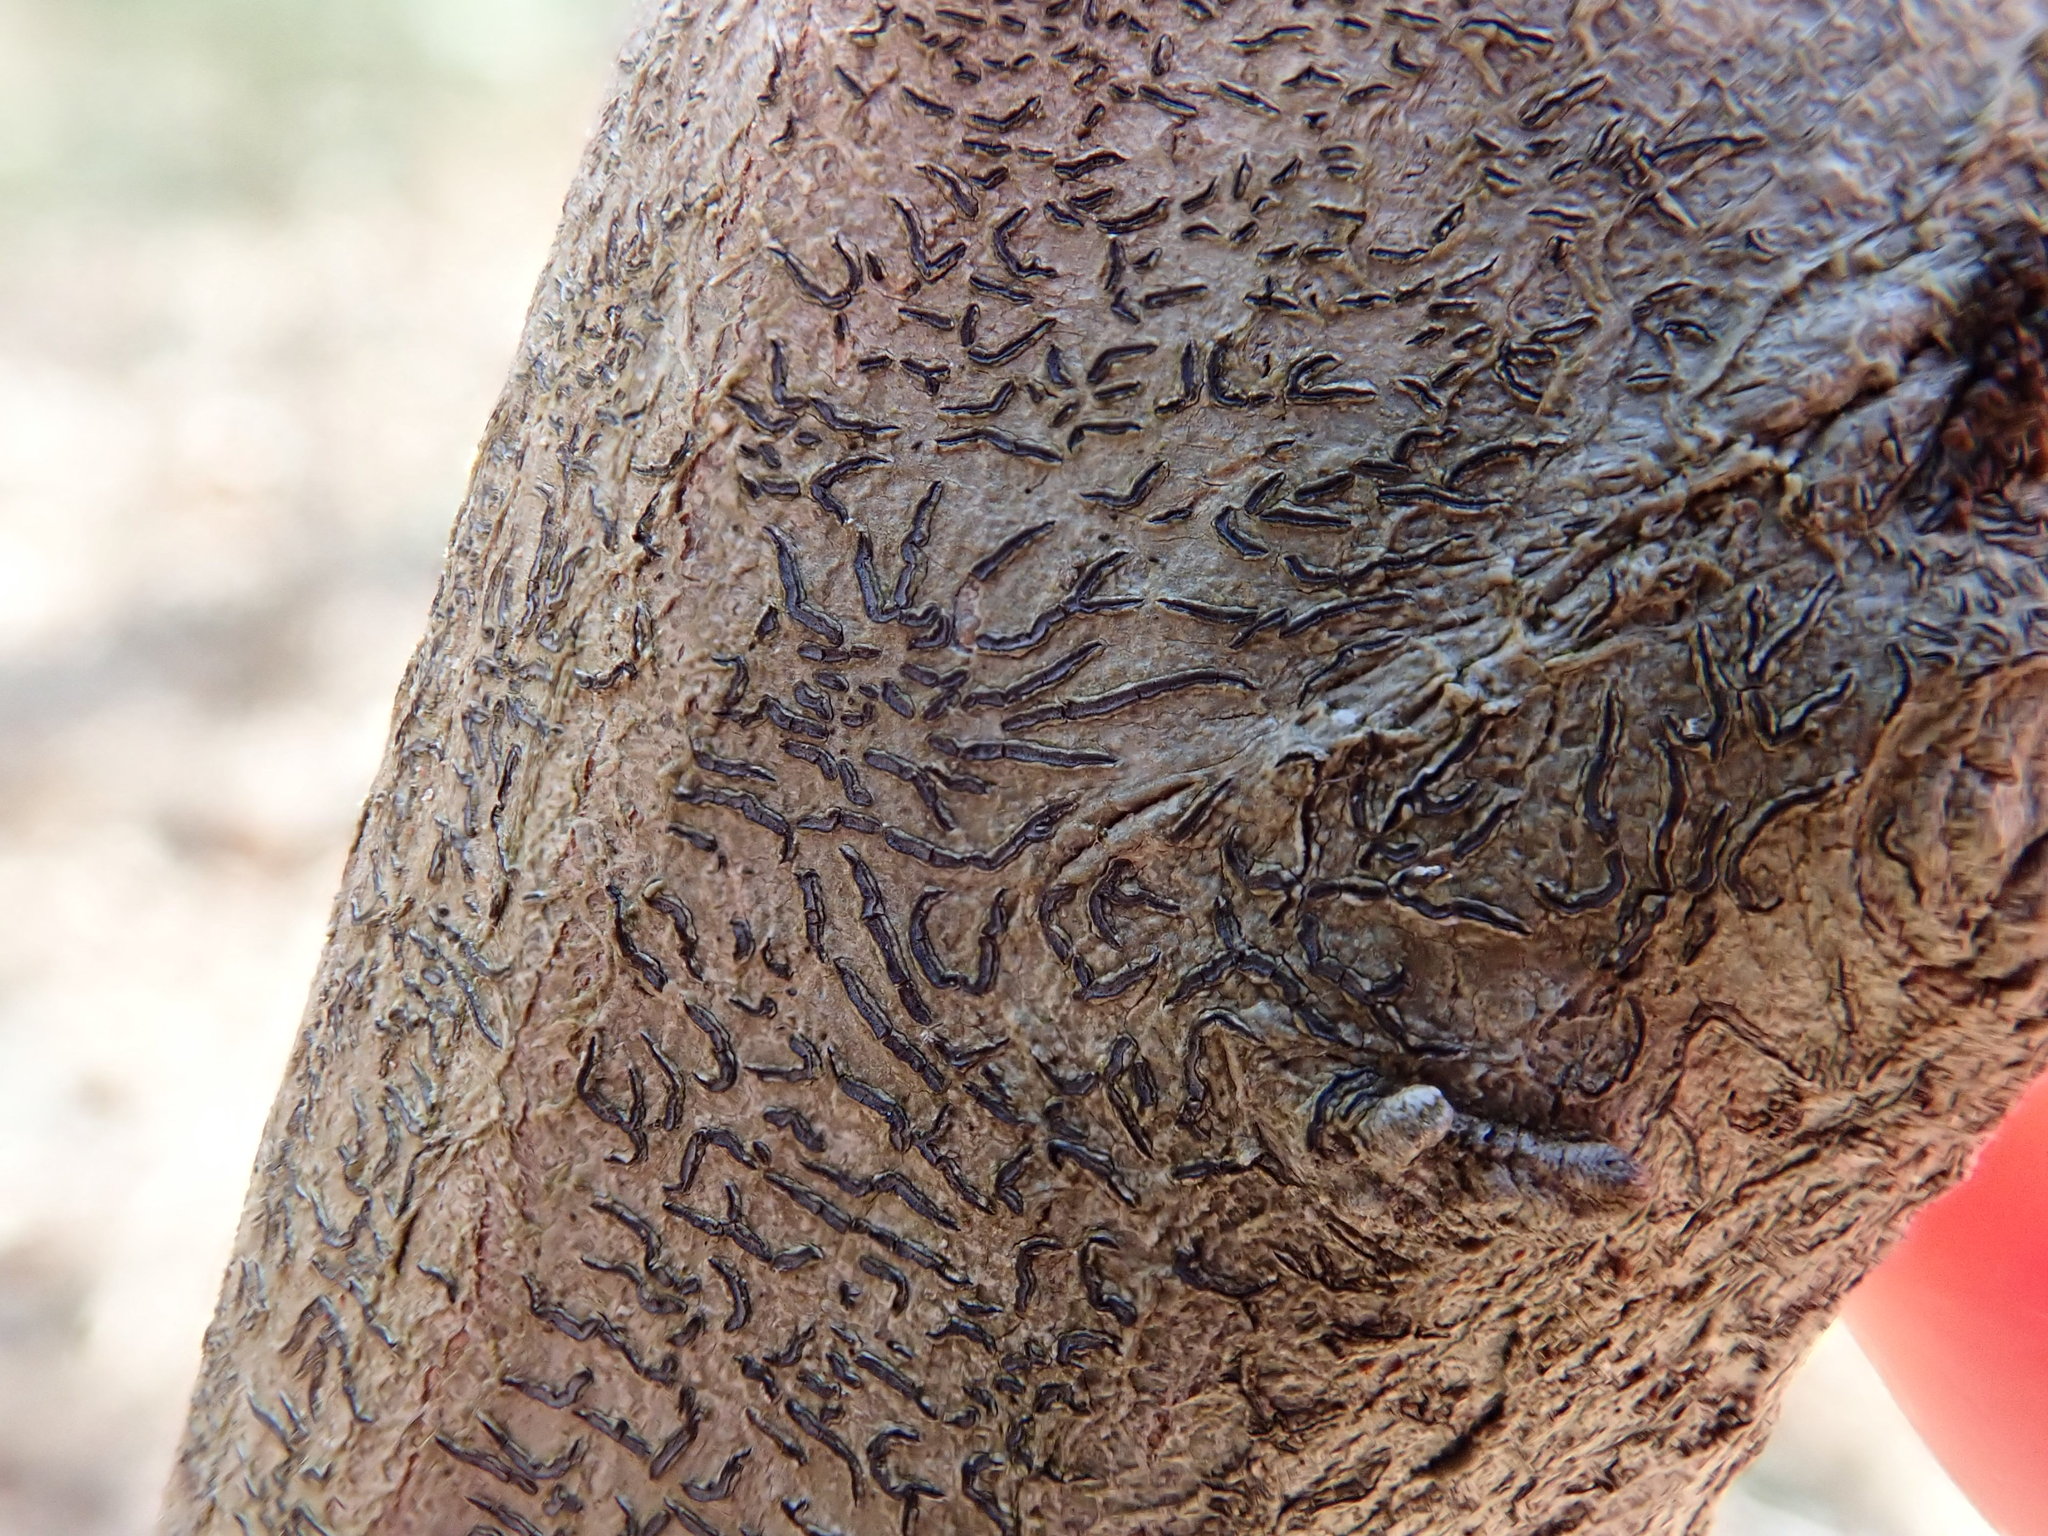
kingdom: Fungi
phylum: Ascomycota
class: Lecanoromycetes
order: Ostropales
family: Graphidaceae
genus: Graphis
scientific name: Graphis scripta
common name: Script lichen
